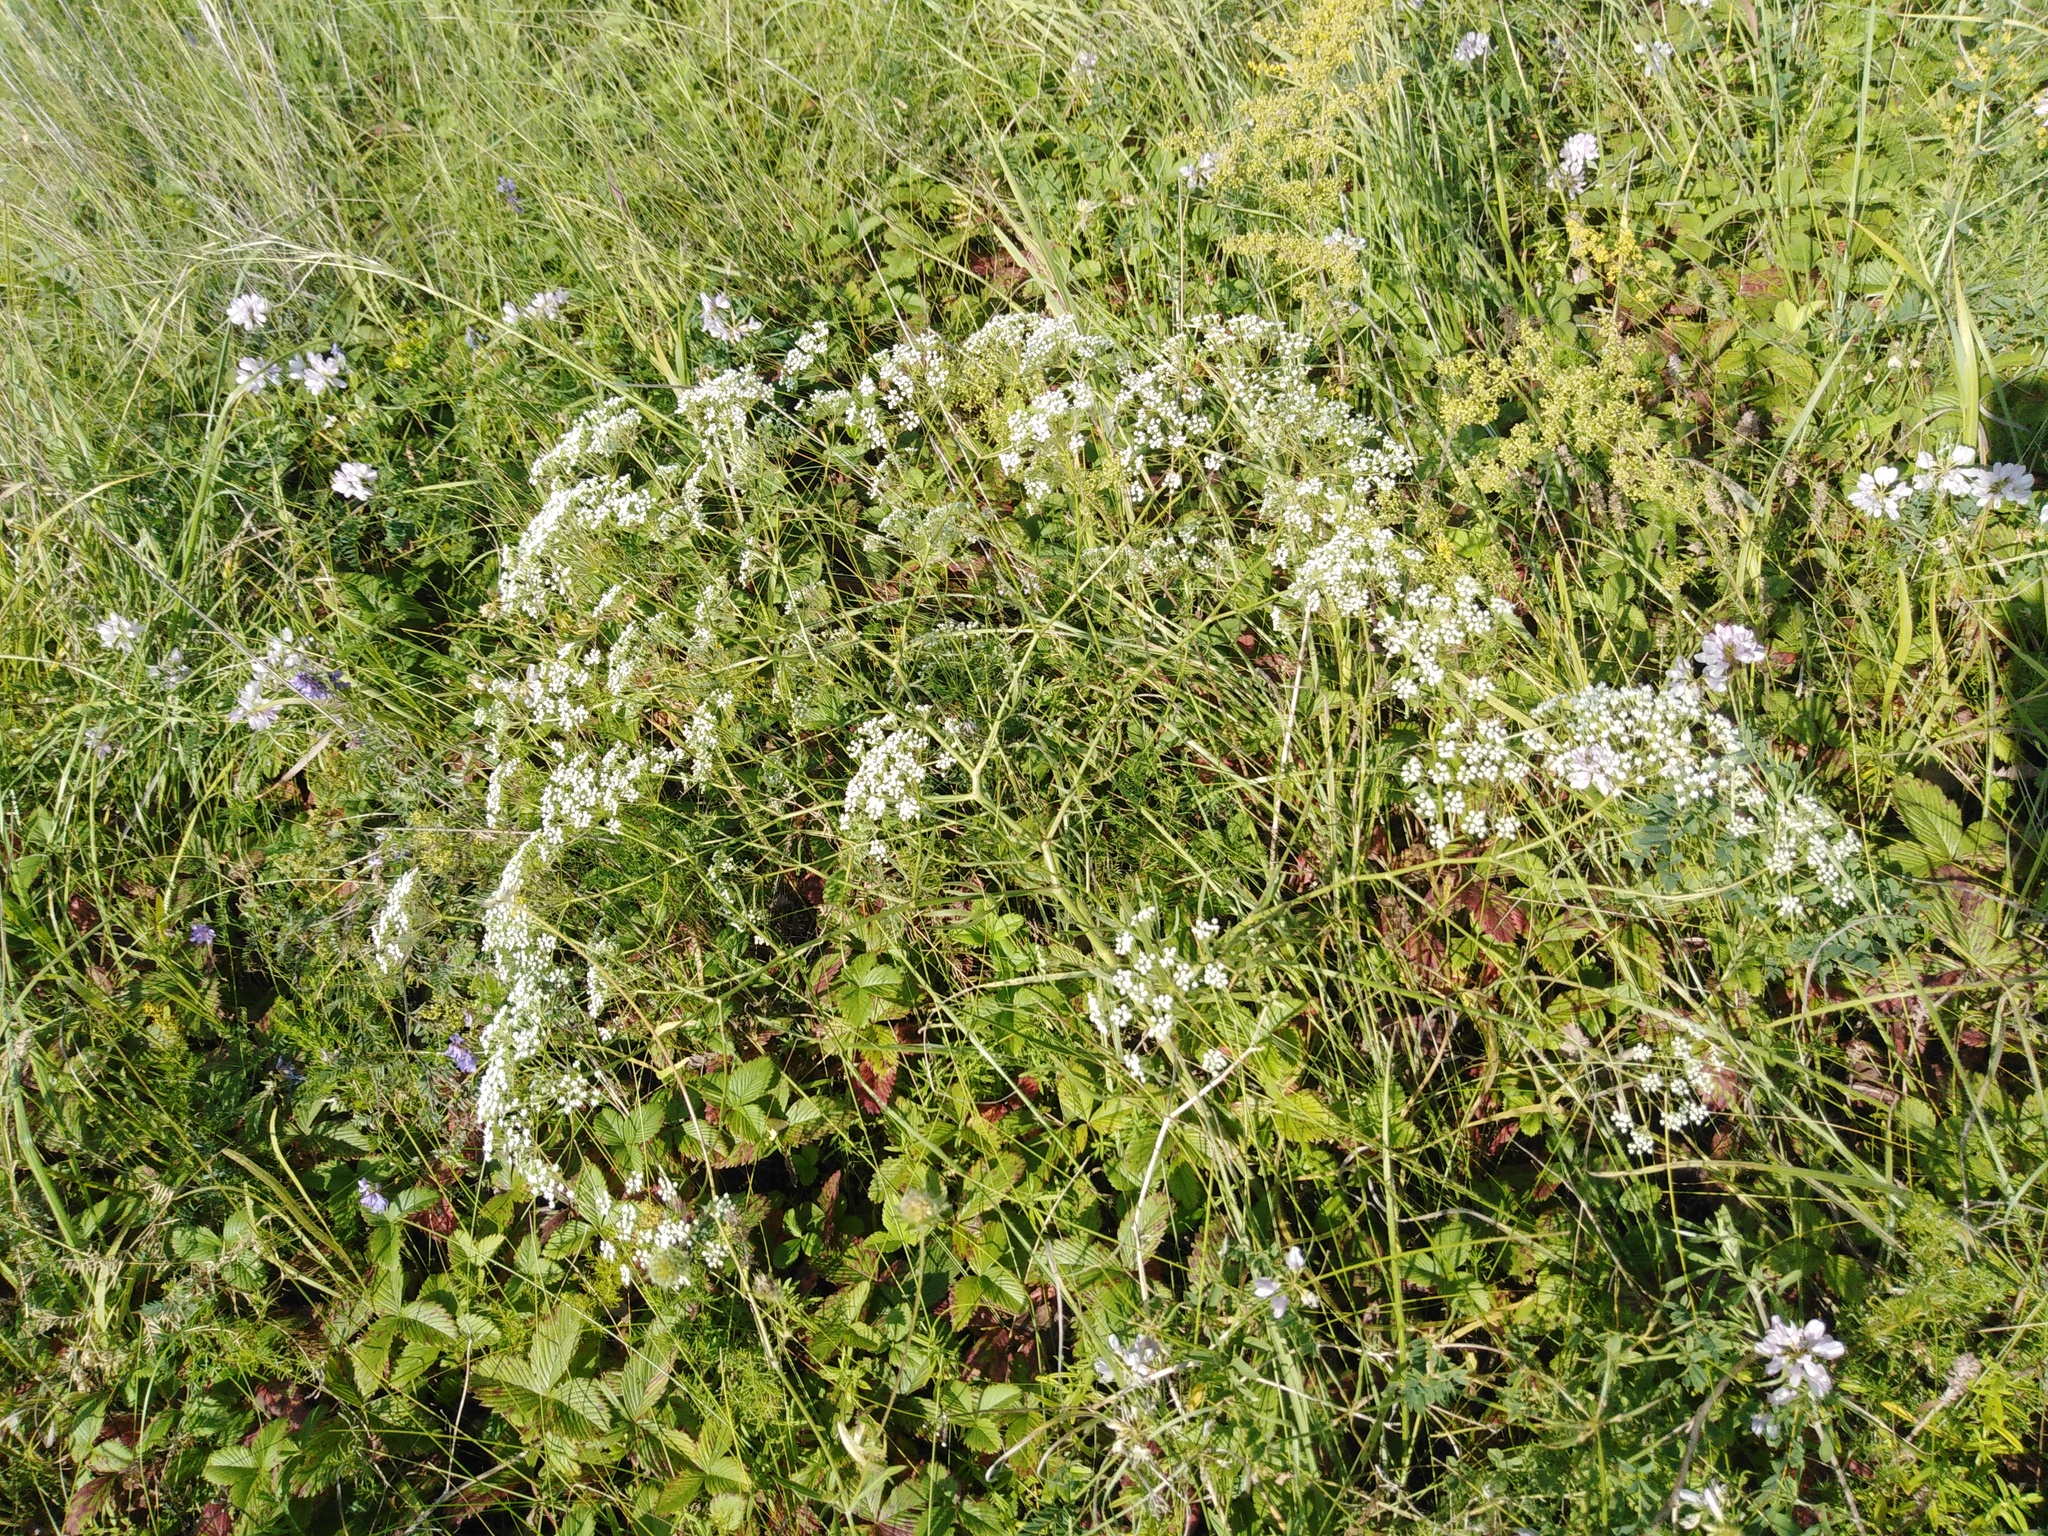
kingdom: Plantae
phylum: Tracheophyta
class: Magnoliopsida
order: Apiales
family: Apiaceae
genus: Falcaria
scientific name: Falcaria vulgaris
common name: Longleaf
